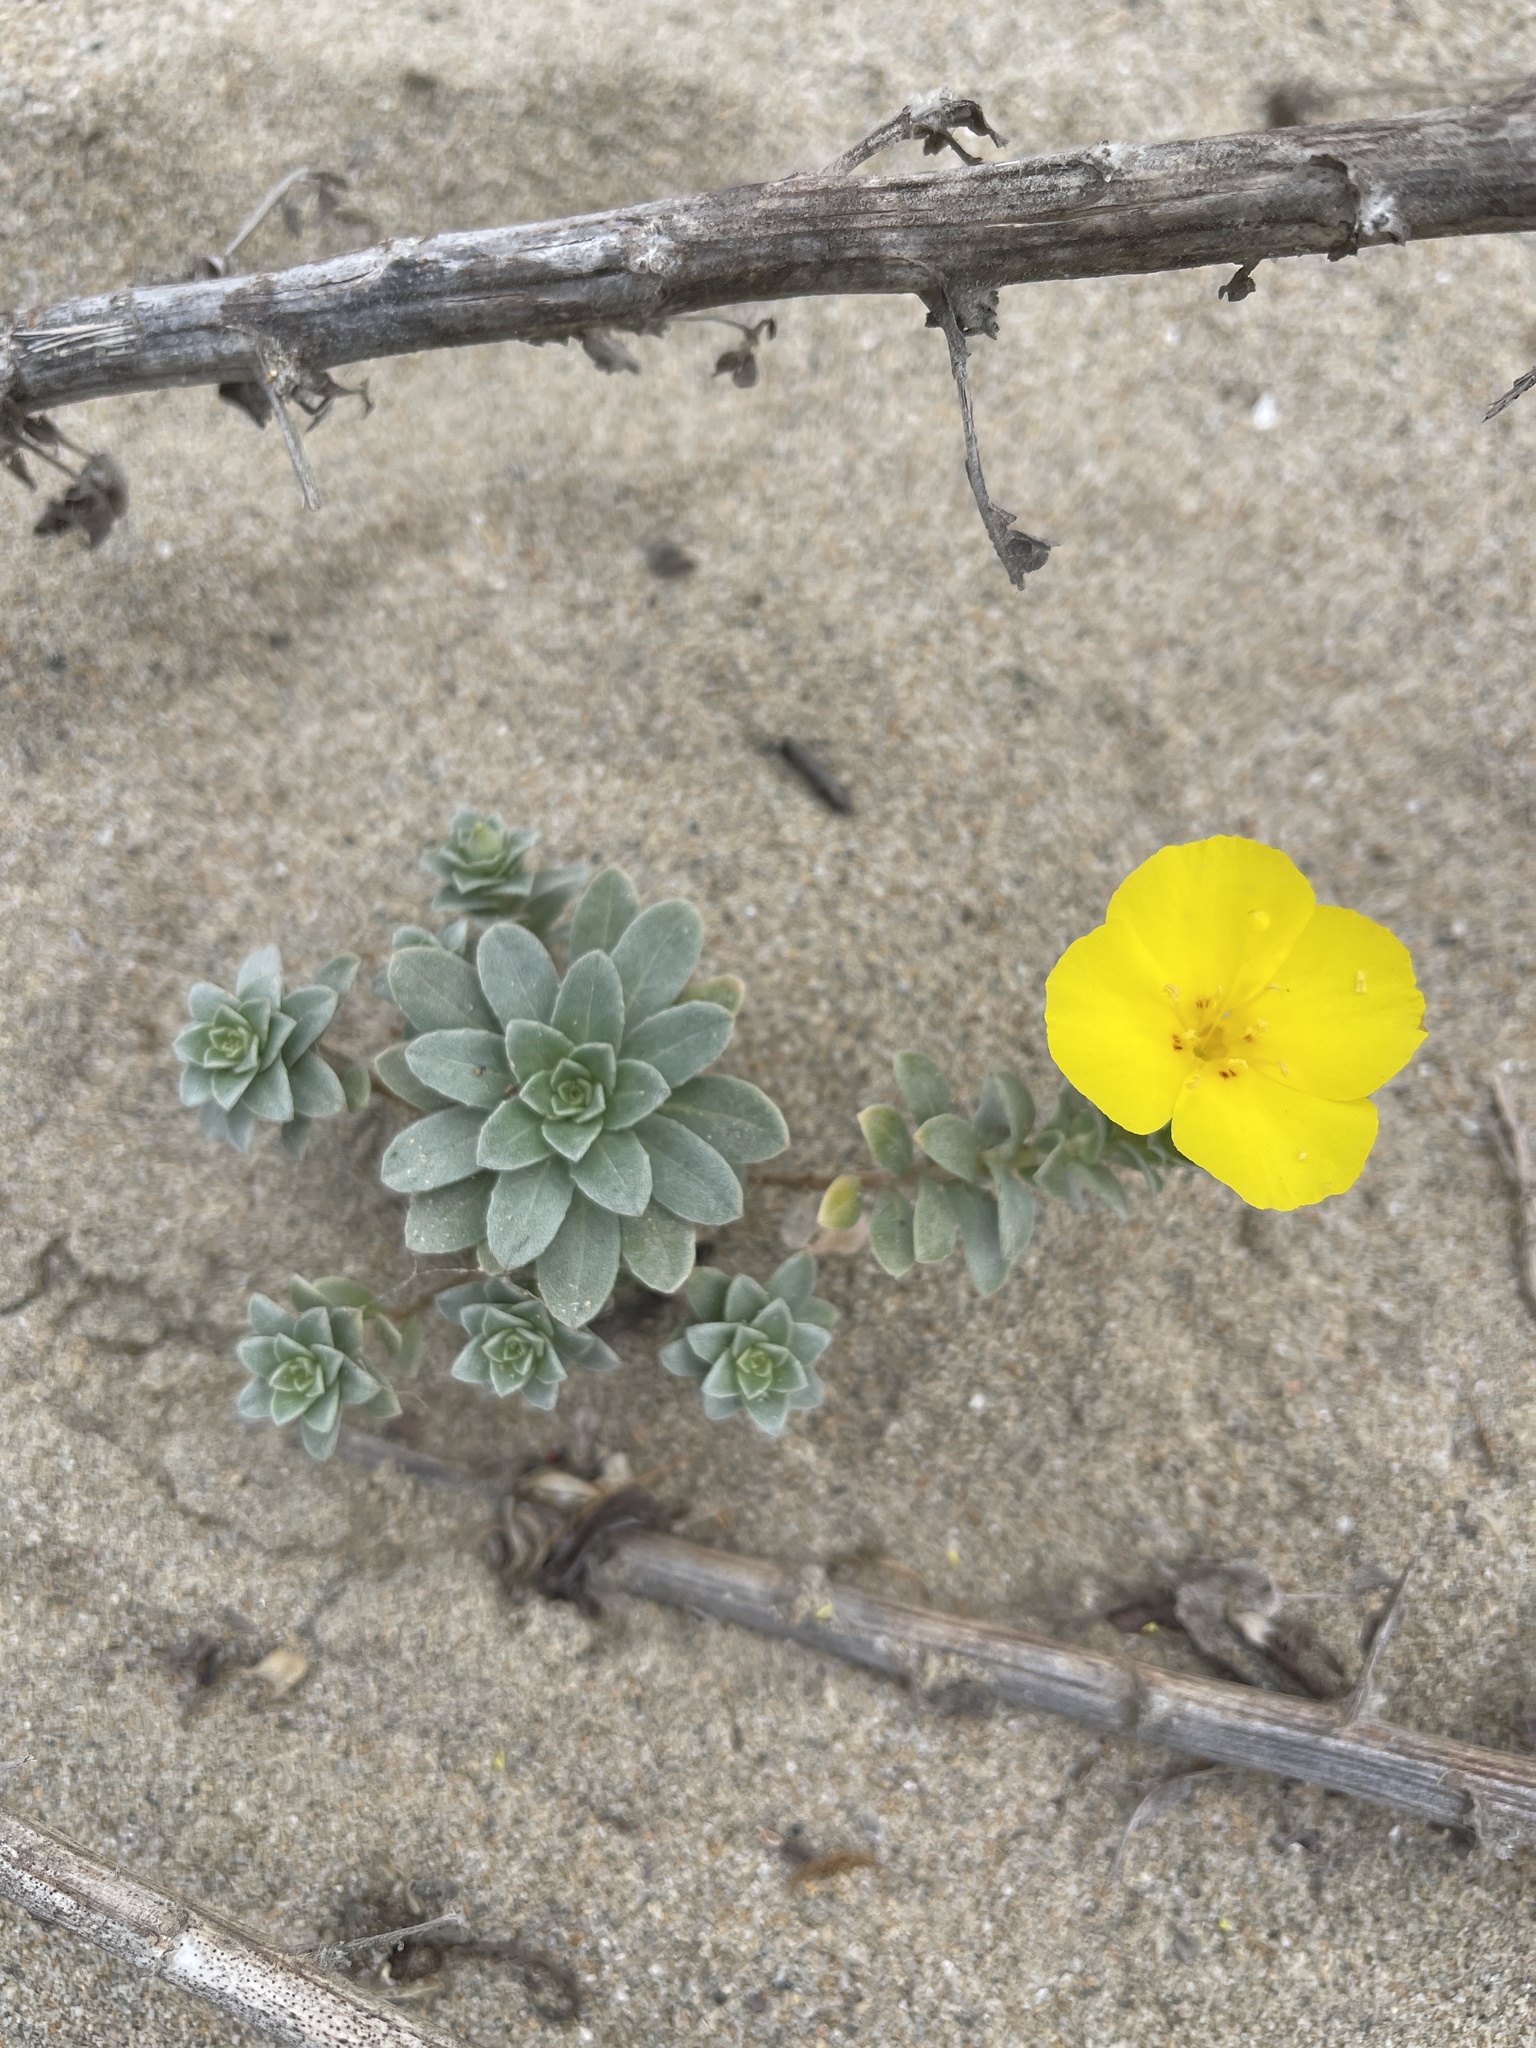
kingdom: Plantae
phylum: Tracheophyta
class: Magnoliopsida
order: Myrtales
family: Onagraceae
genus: Camissoniopsis
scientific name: Camissoniopsis cheiranthifolia
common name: Beach suncup
